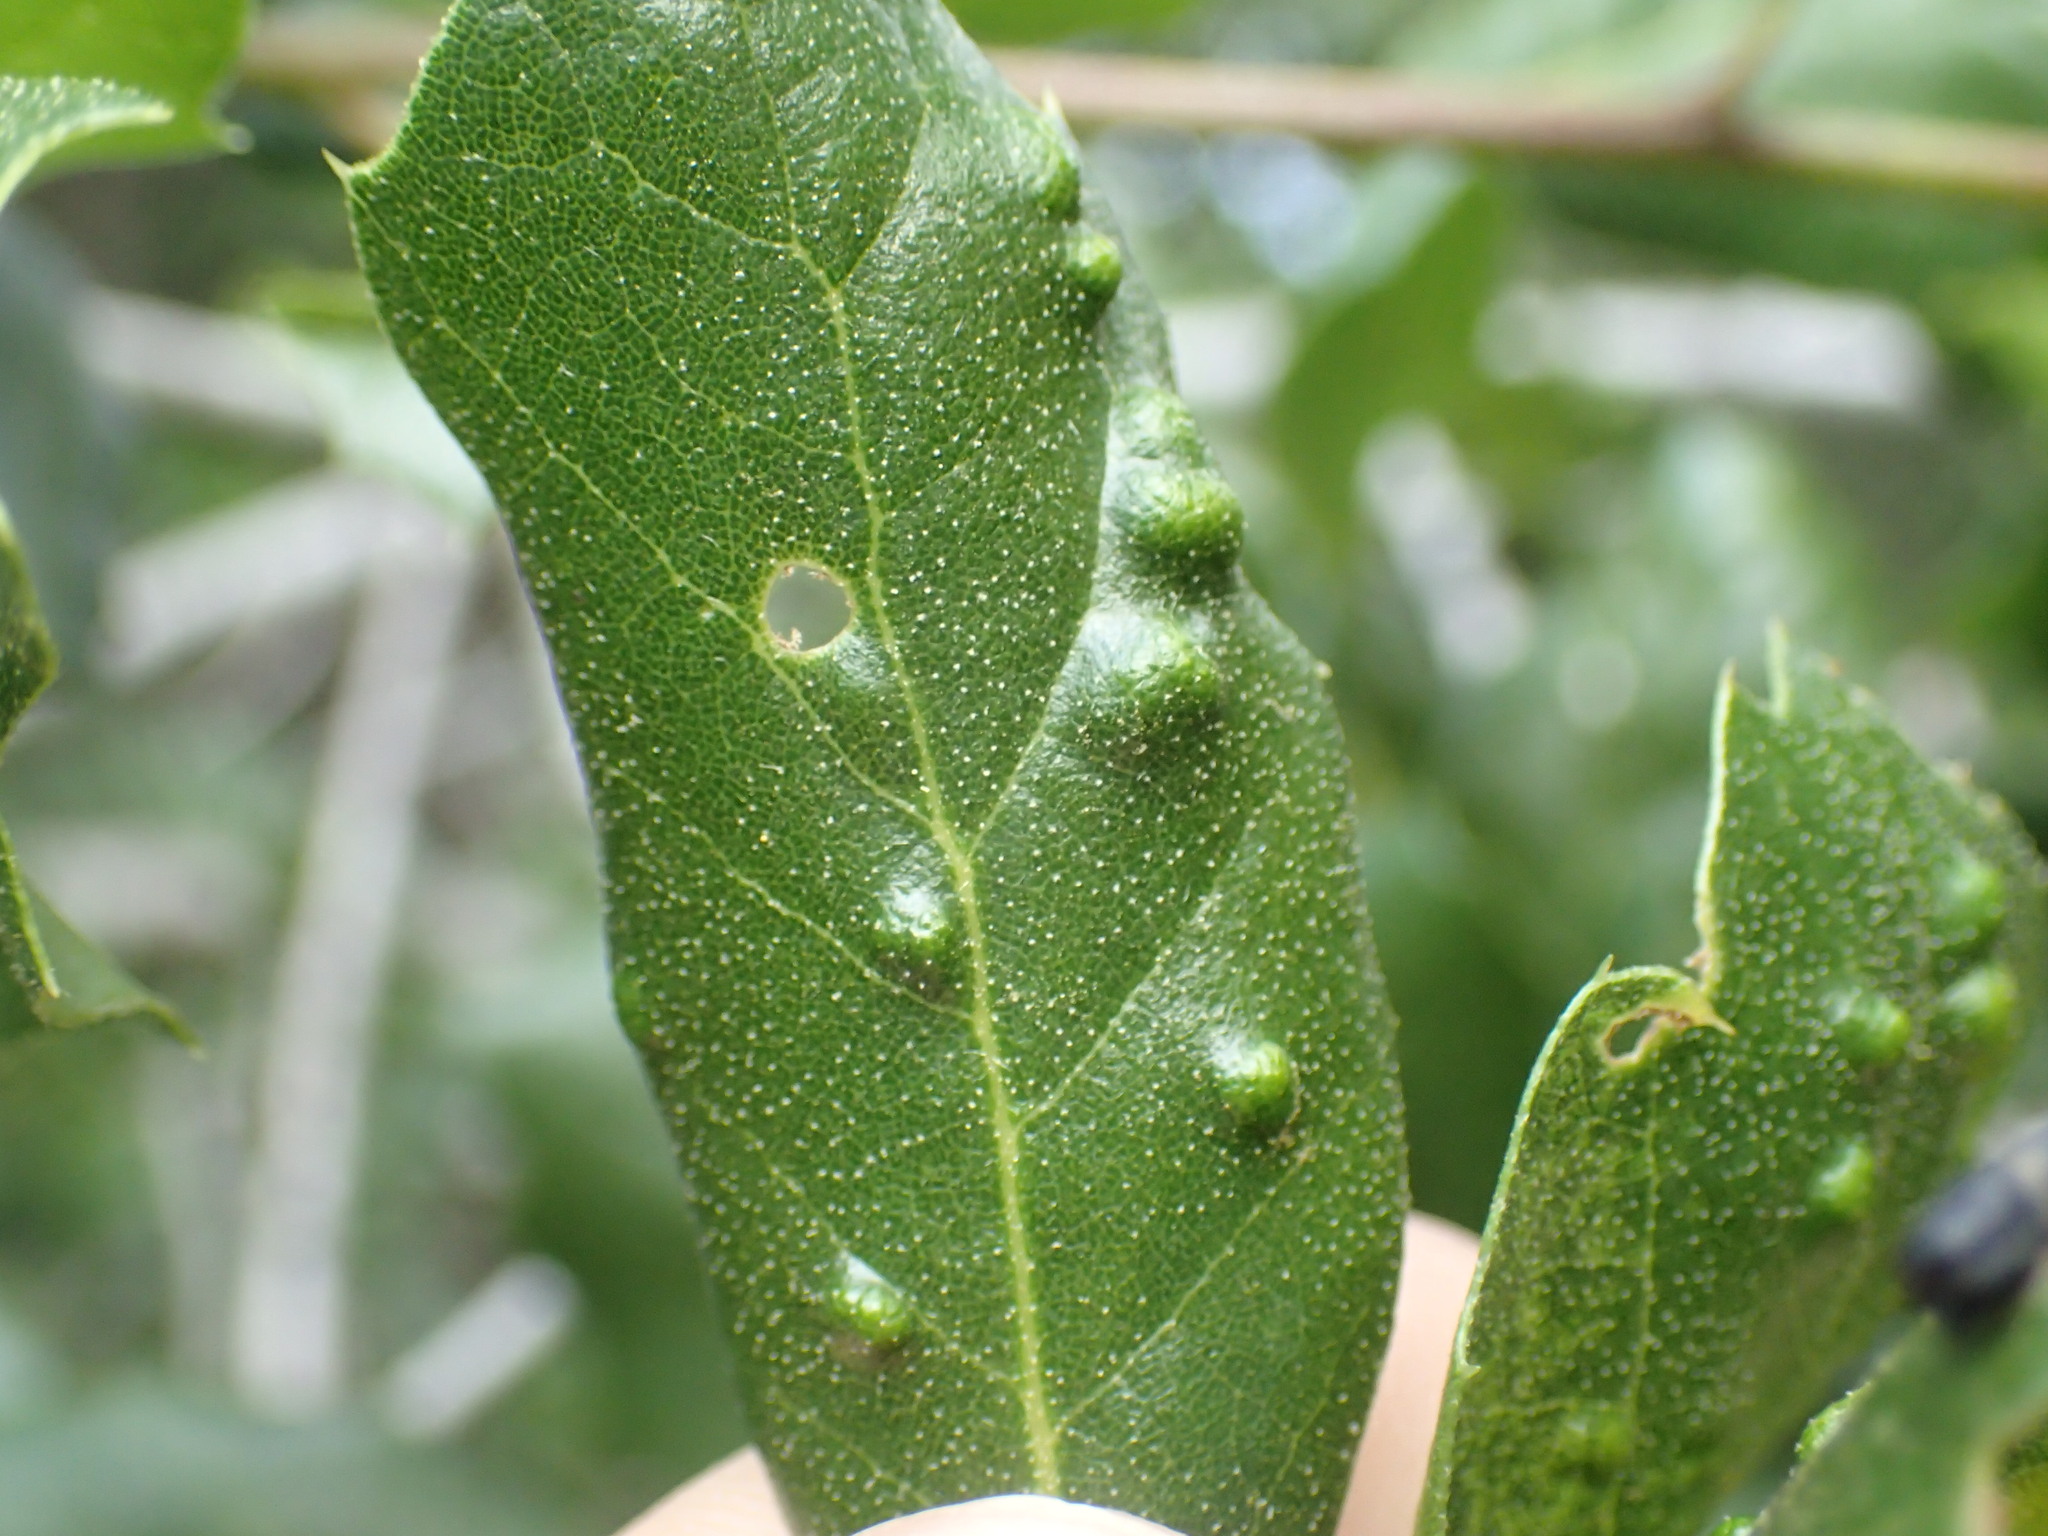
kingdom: Animalia
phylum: Arthropoda
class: Arachnida
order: Trombidiformes
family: Eriophyidae
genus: Aceria
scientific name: Aceria
